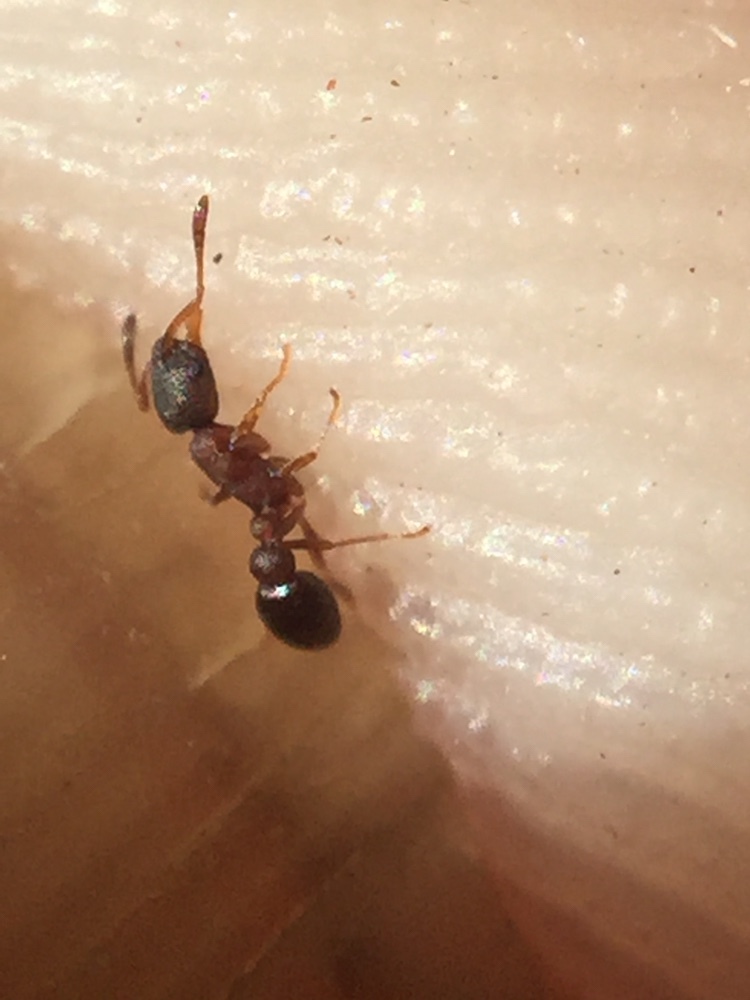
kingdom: Animalia
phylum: Arthropoda
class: Insecta
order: Hymenoptera
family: Formicidae
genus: Cardiocondyla
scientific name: Cardiocondyla
